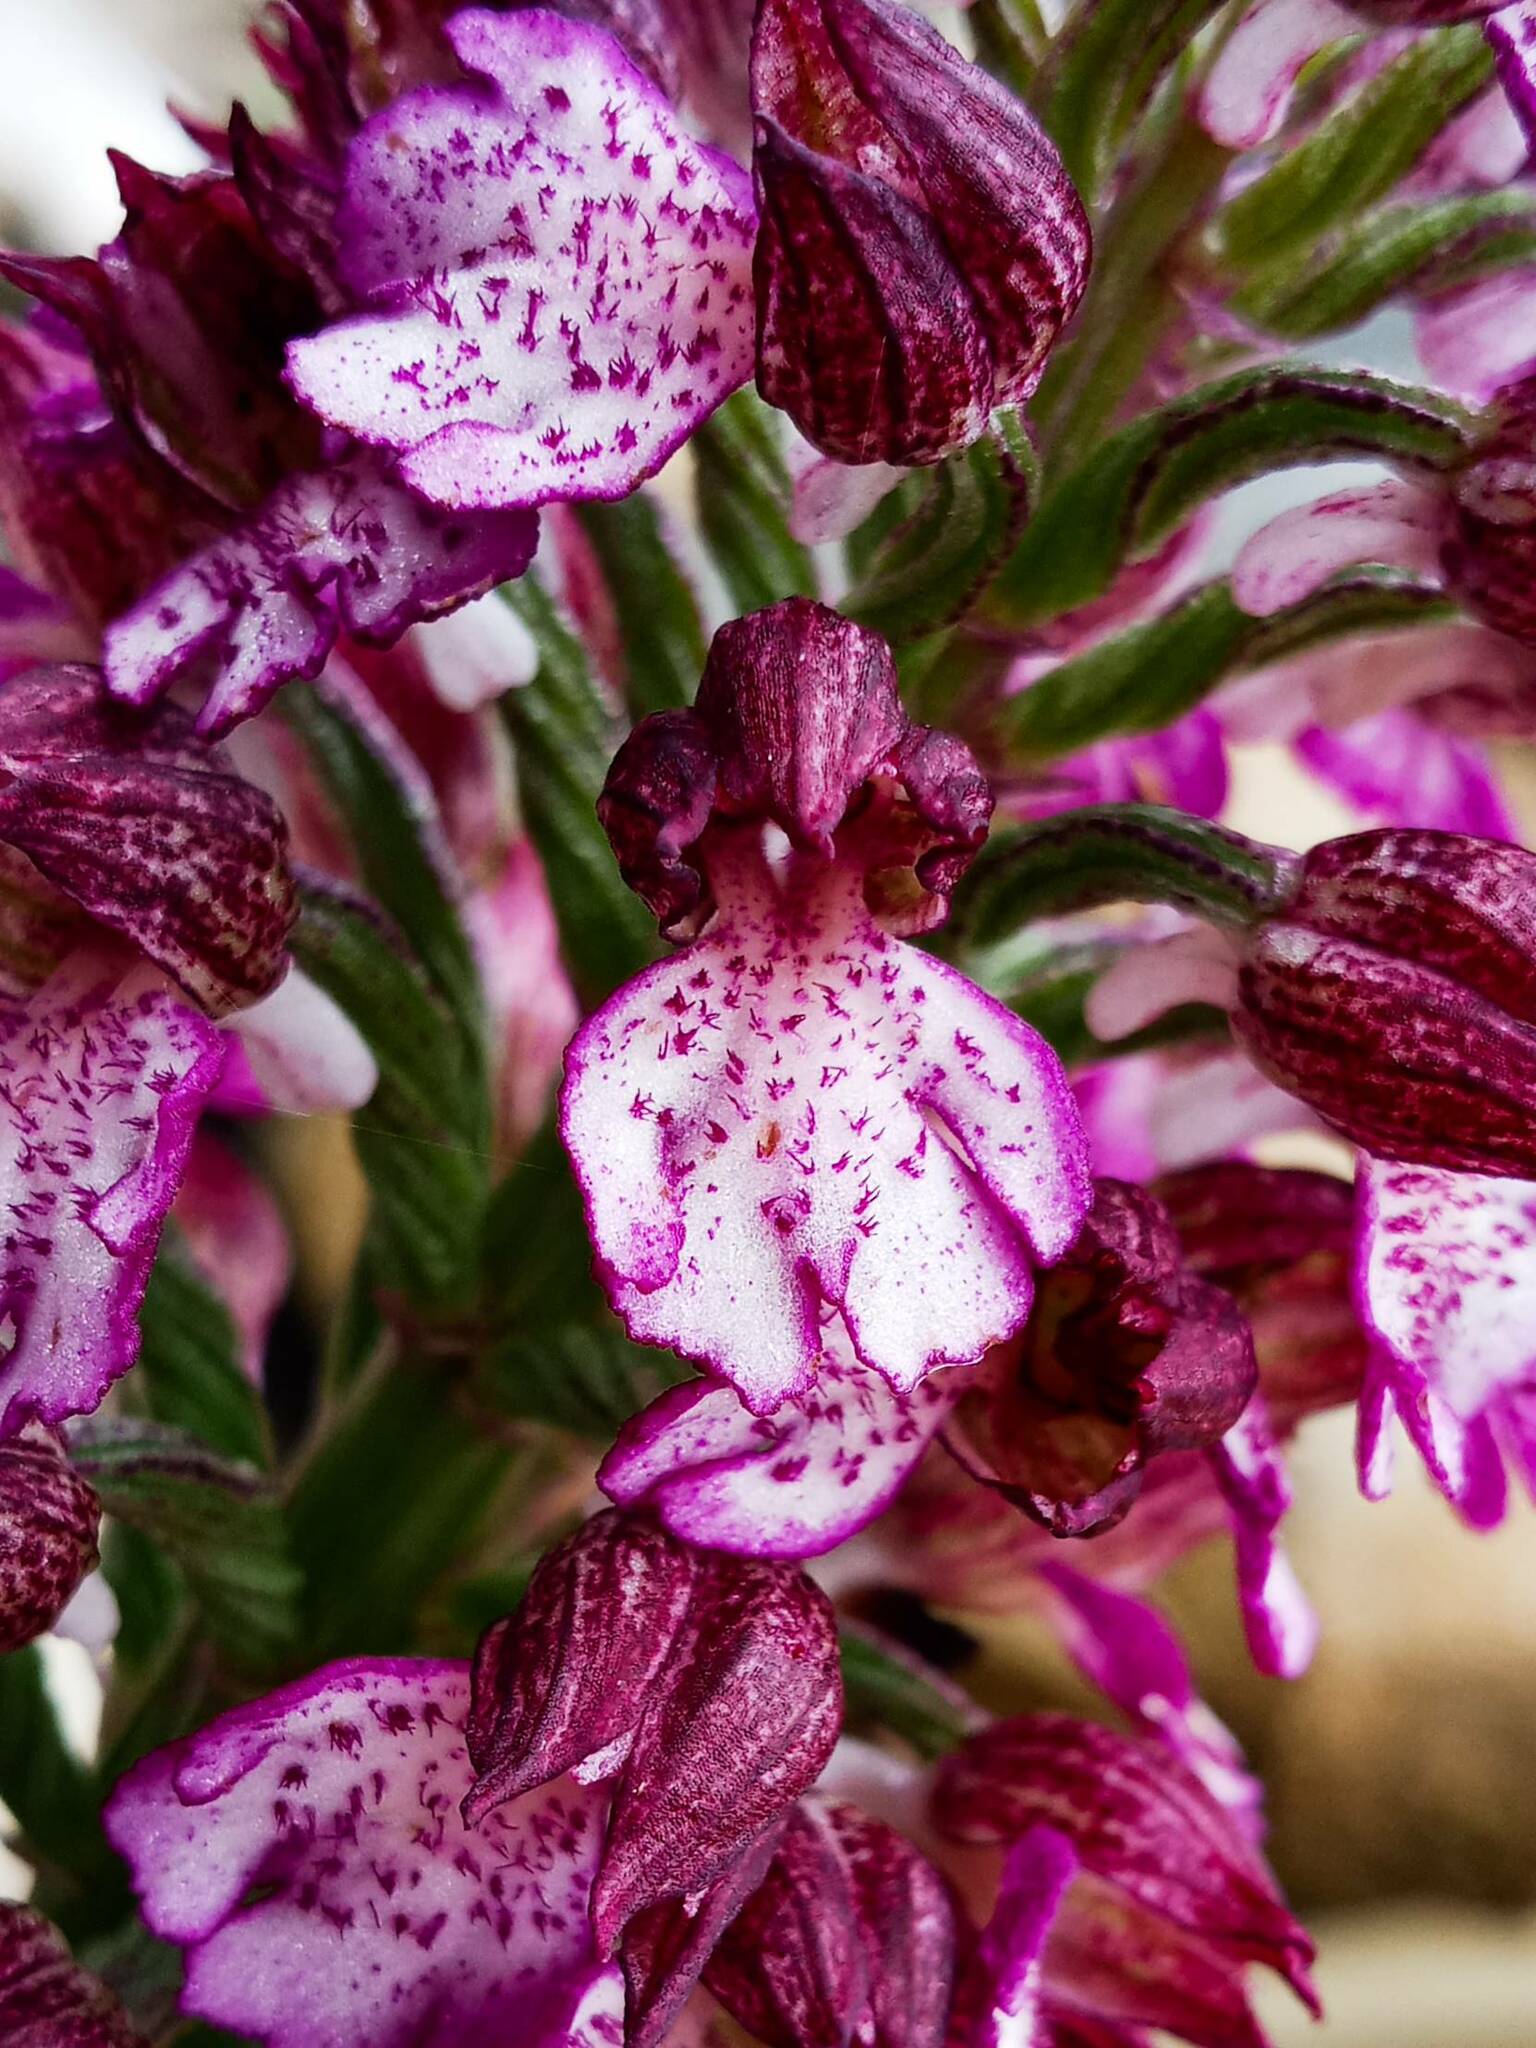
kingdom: Plantae
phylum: Tracheophyta
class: Liliopsida
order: Asparagales
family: Orchidaceae
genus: Orchis
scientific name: Orchis purpurea
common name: Lady orchid
